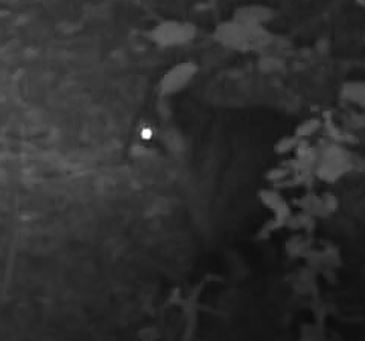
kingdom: Animalia
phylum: Chordata
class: Mammalia
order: Carnivora
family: Procyonidae
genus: Procyon
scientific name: Procyon lotor
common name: Raccoon
